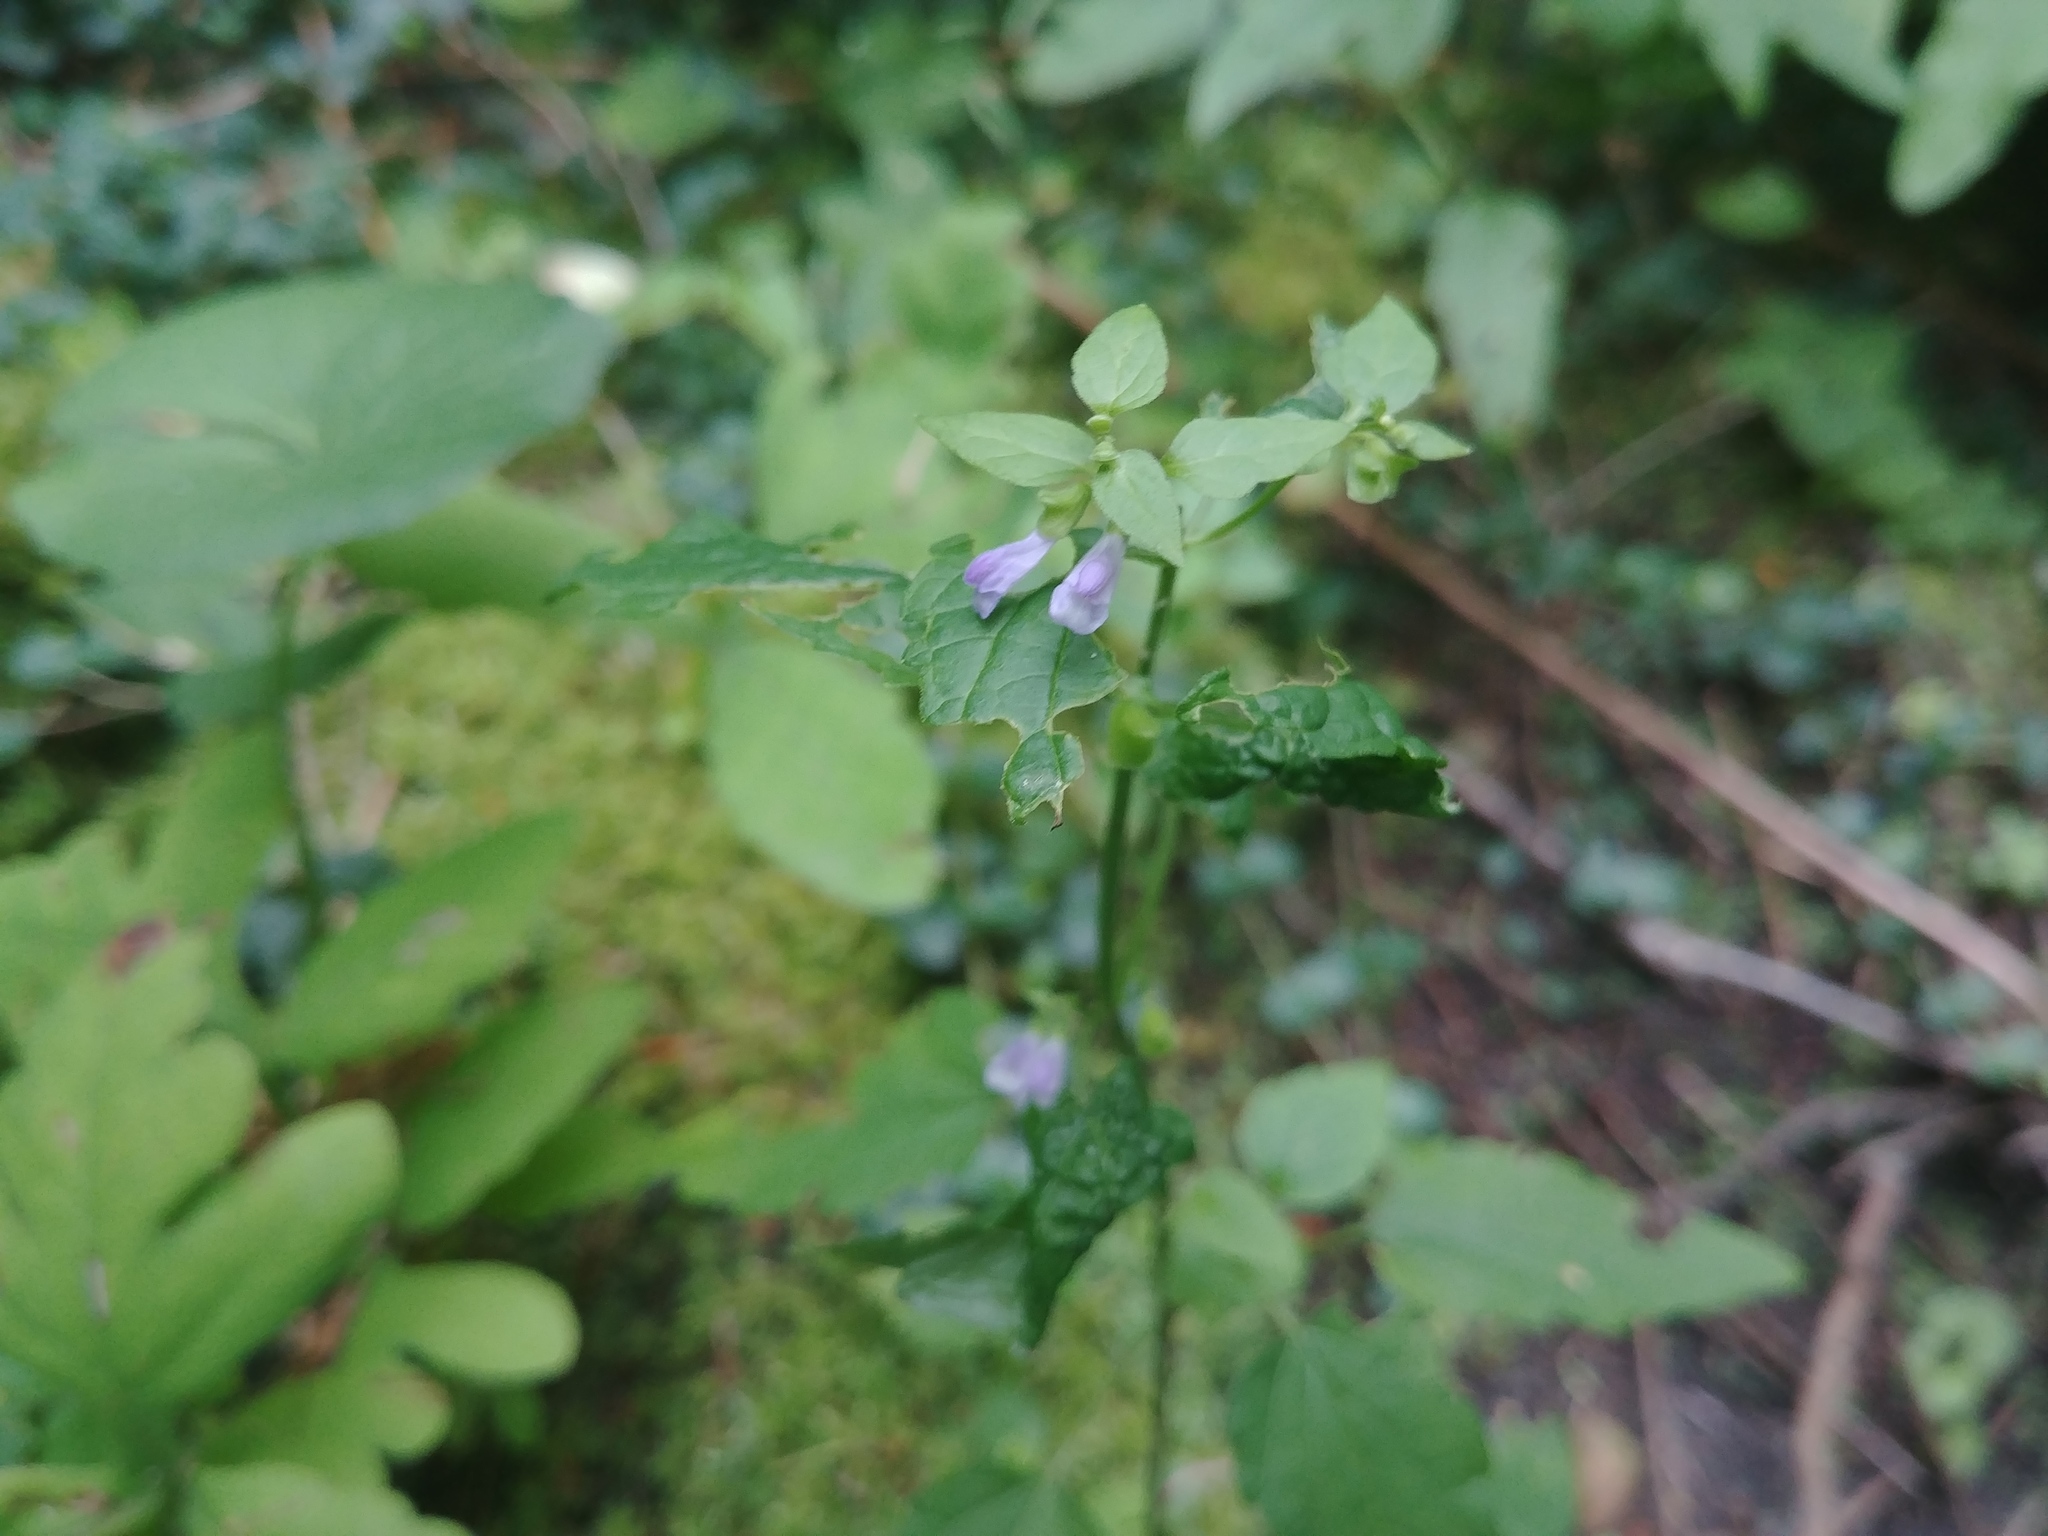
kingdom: Plantae
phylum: Tracheophyta
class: Magnoliopsida
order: Lamiales
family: Lamiaceae
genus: Scutellaria
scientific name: Scutellaria lateriflora
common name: Blue skullcap
